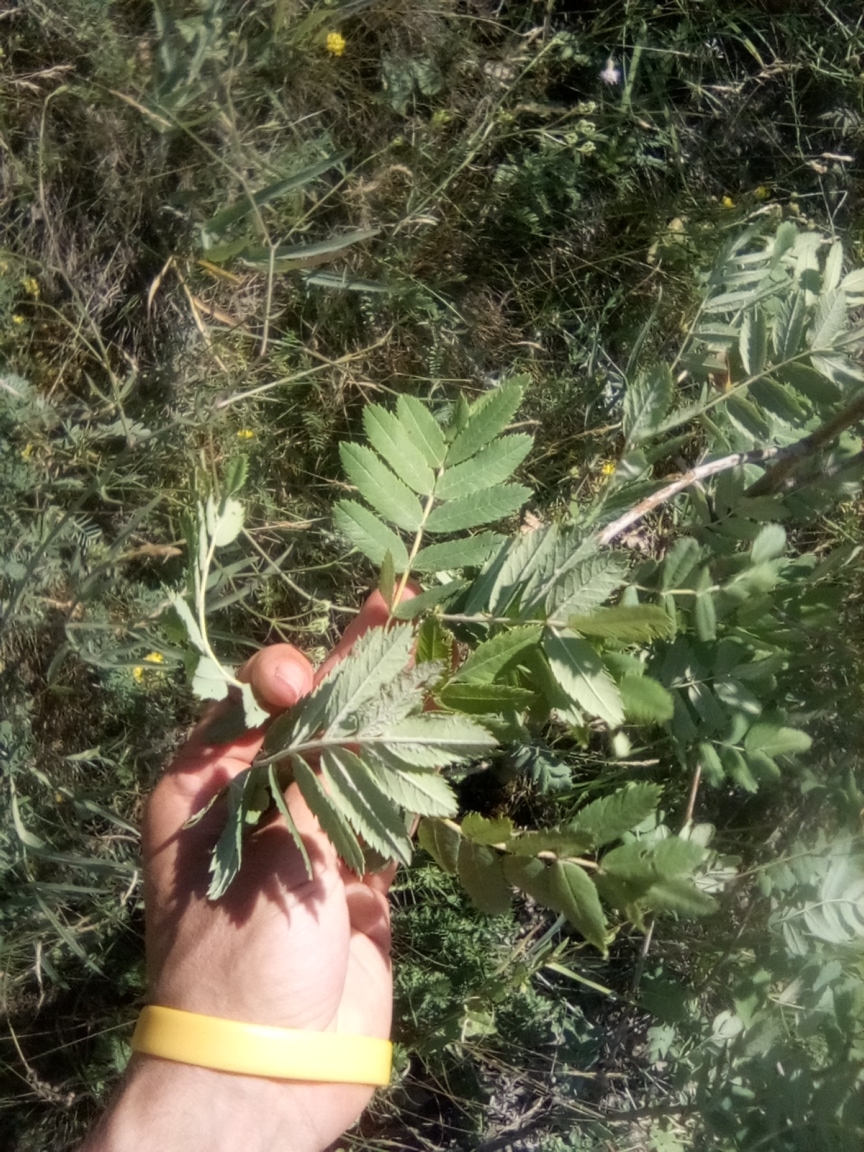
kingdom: Plantae
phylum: Tracheophyta
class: Magnoliopsida
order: Rosales
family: Rosaceae
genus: Sorbus
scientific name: Sorbus aucuparia
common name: Rowan
